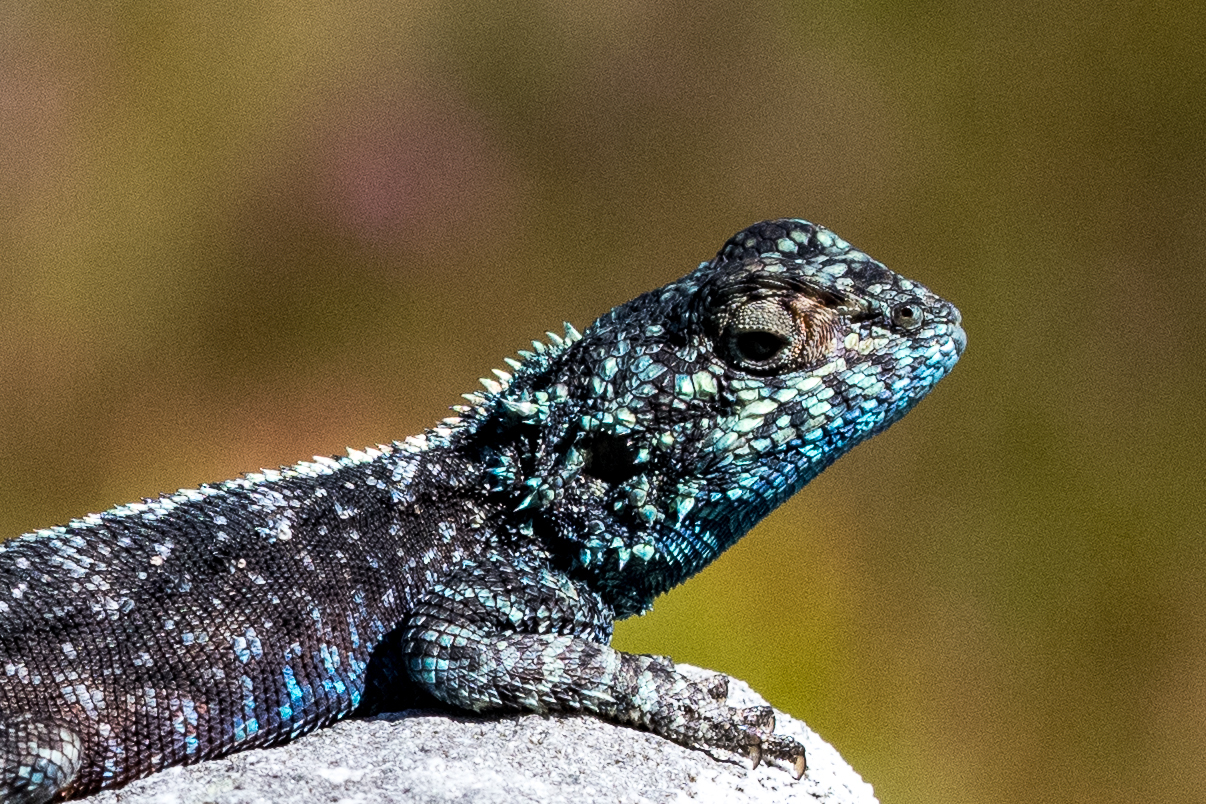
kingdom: Animalia
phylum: Chordata
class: Squamata
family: Agamidae
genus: Agama
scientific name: Agama atra
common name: Southern african rock agama
